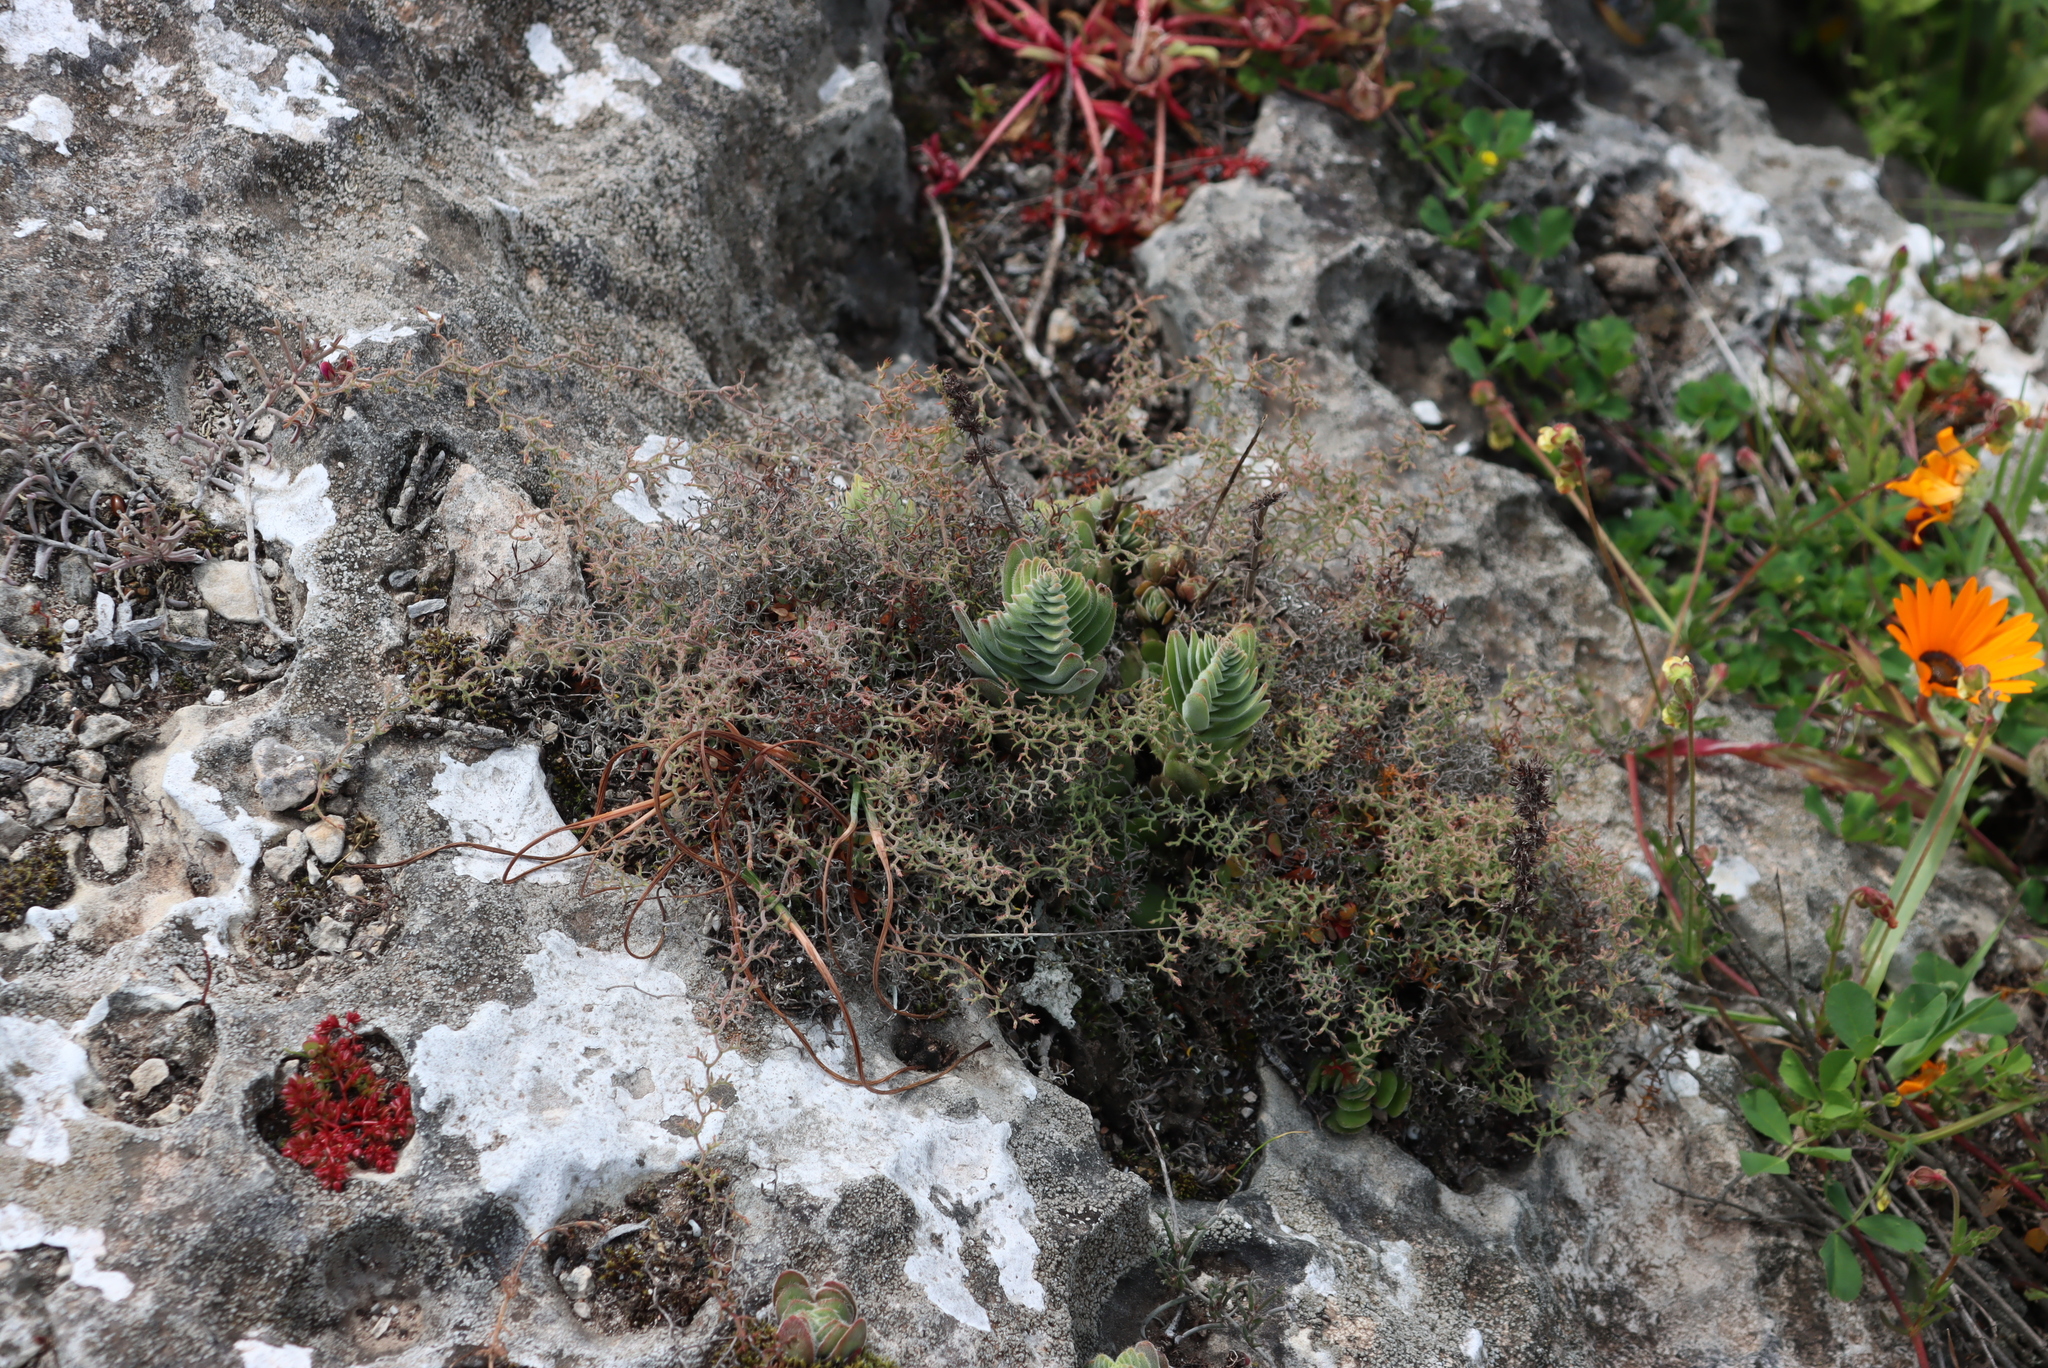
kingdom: Plantae
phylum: Tracheophyta
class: Magnoliopsida
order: Saxifragales
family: Crassulaceae
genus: Crassula
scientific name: Crassula tomentosa
